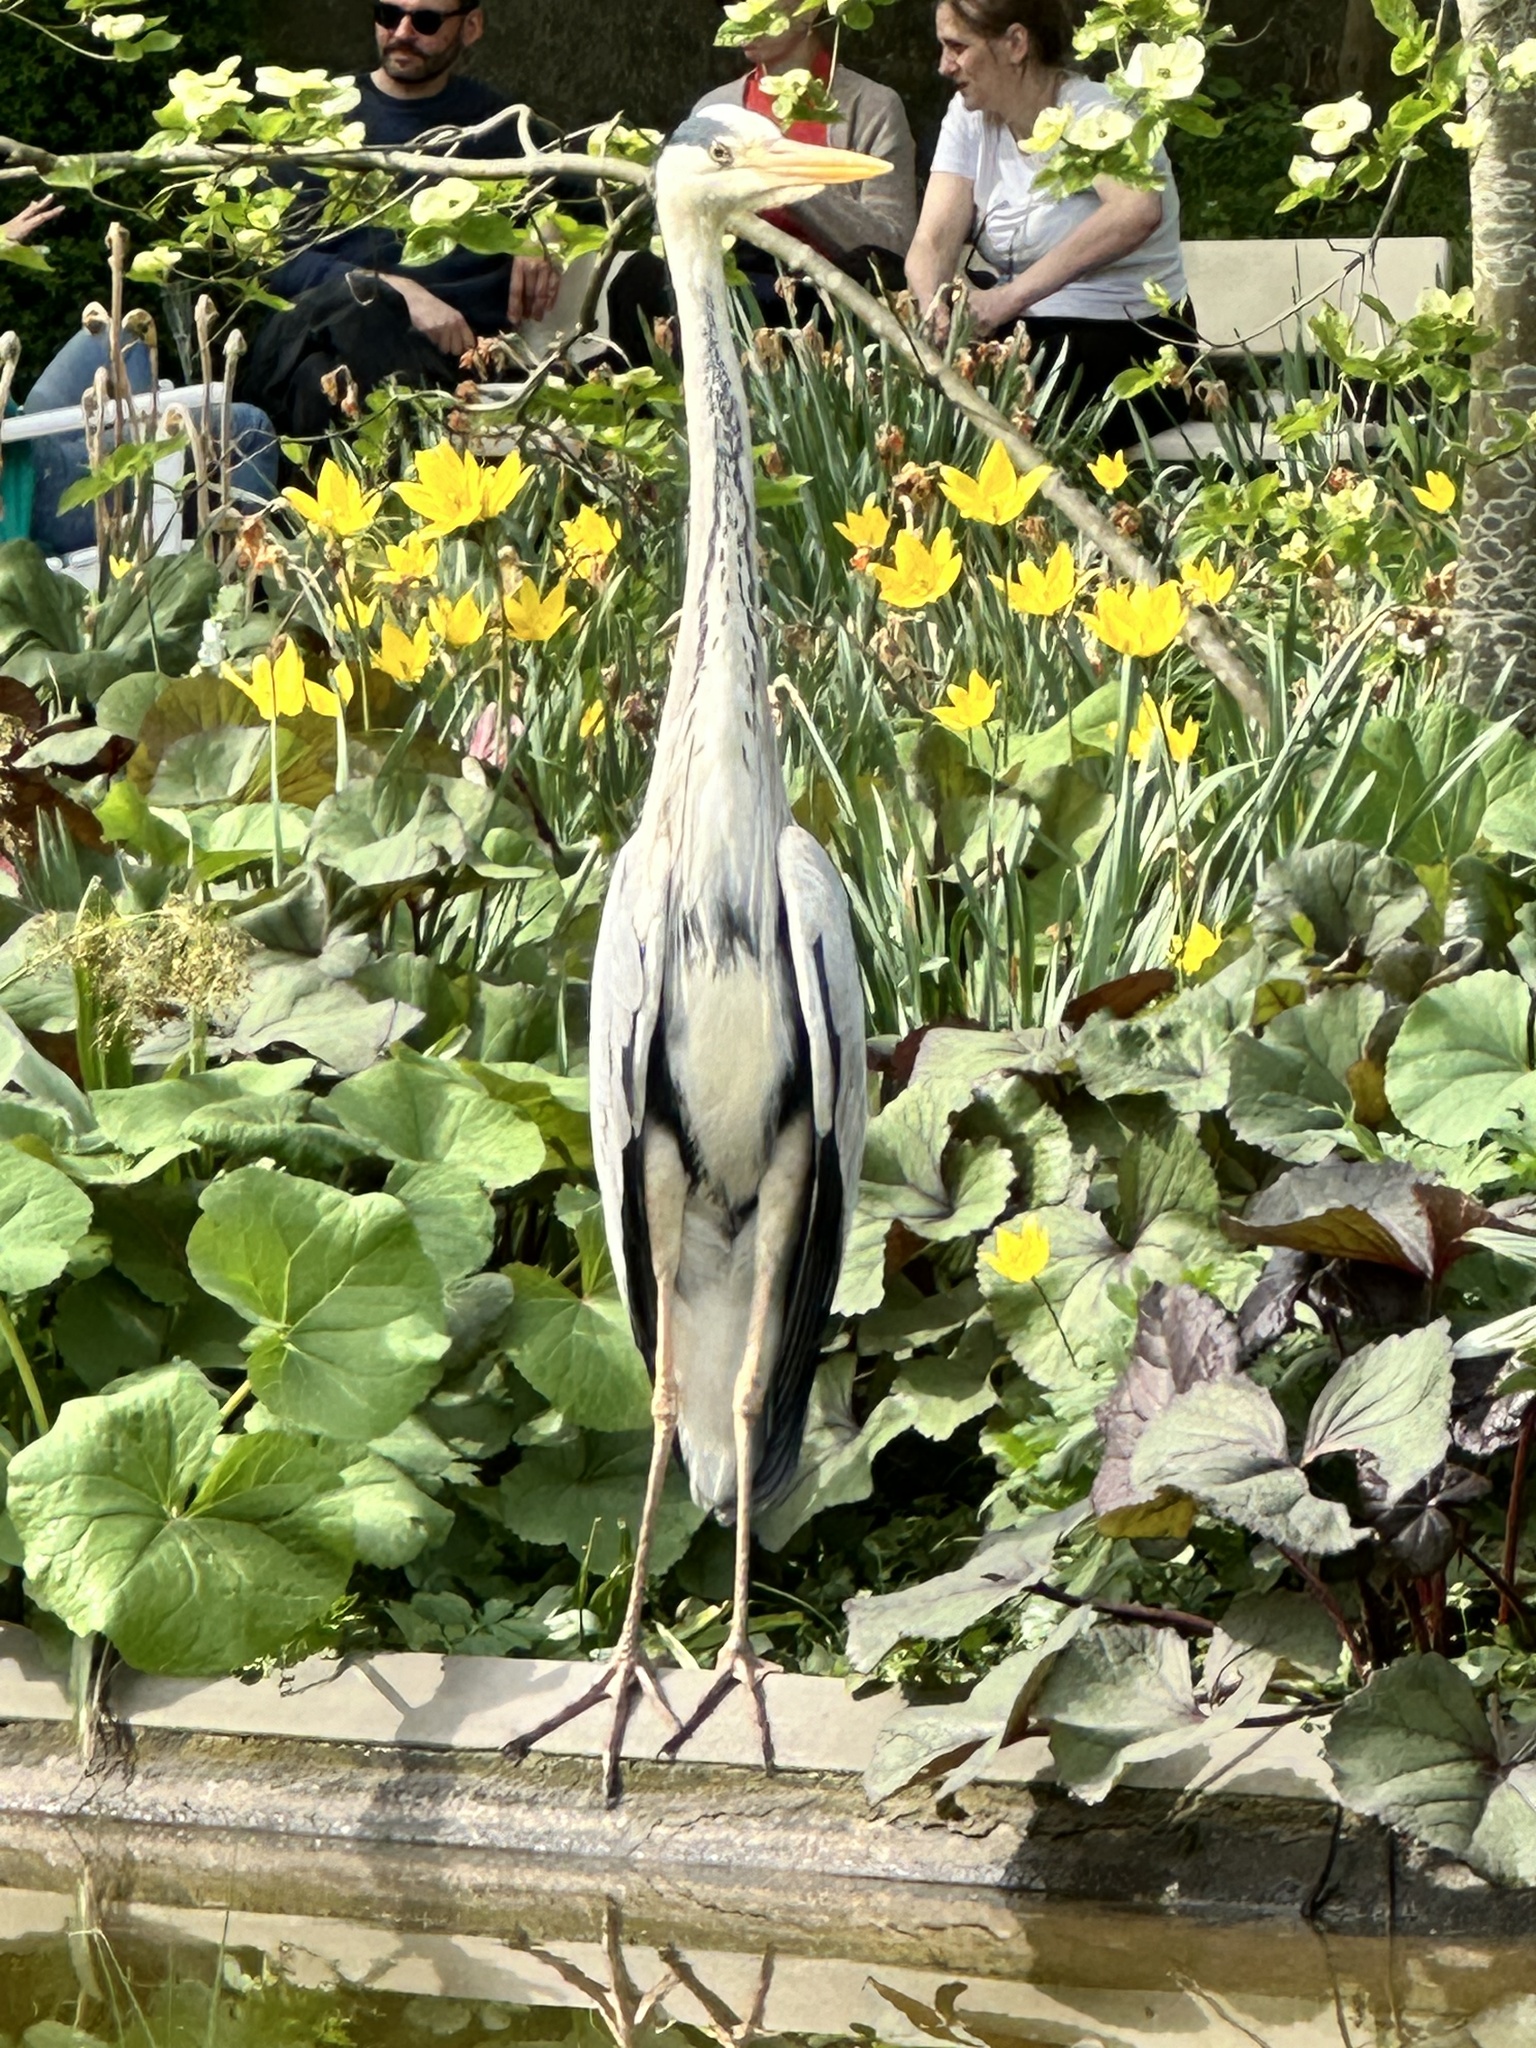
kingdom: Animalia
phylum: Chordata
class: Aves
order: Pelecaniformes
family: Ardeidae
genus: Ardea
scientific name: Ardea cinerea
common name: Grey heron
